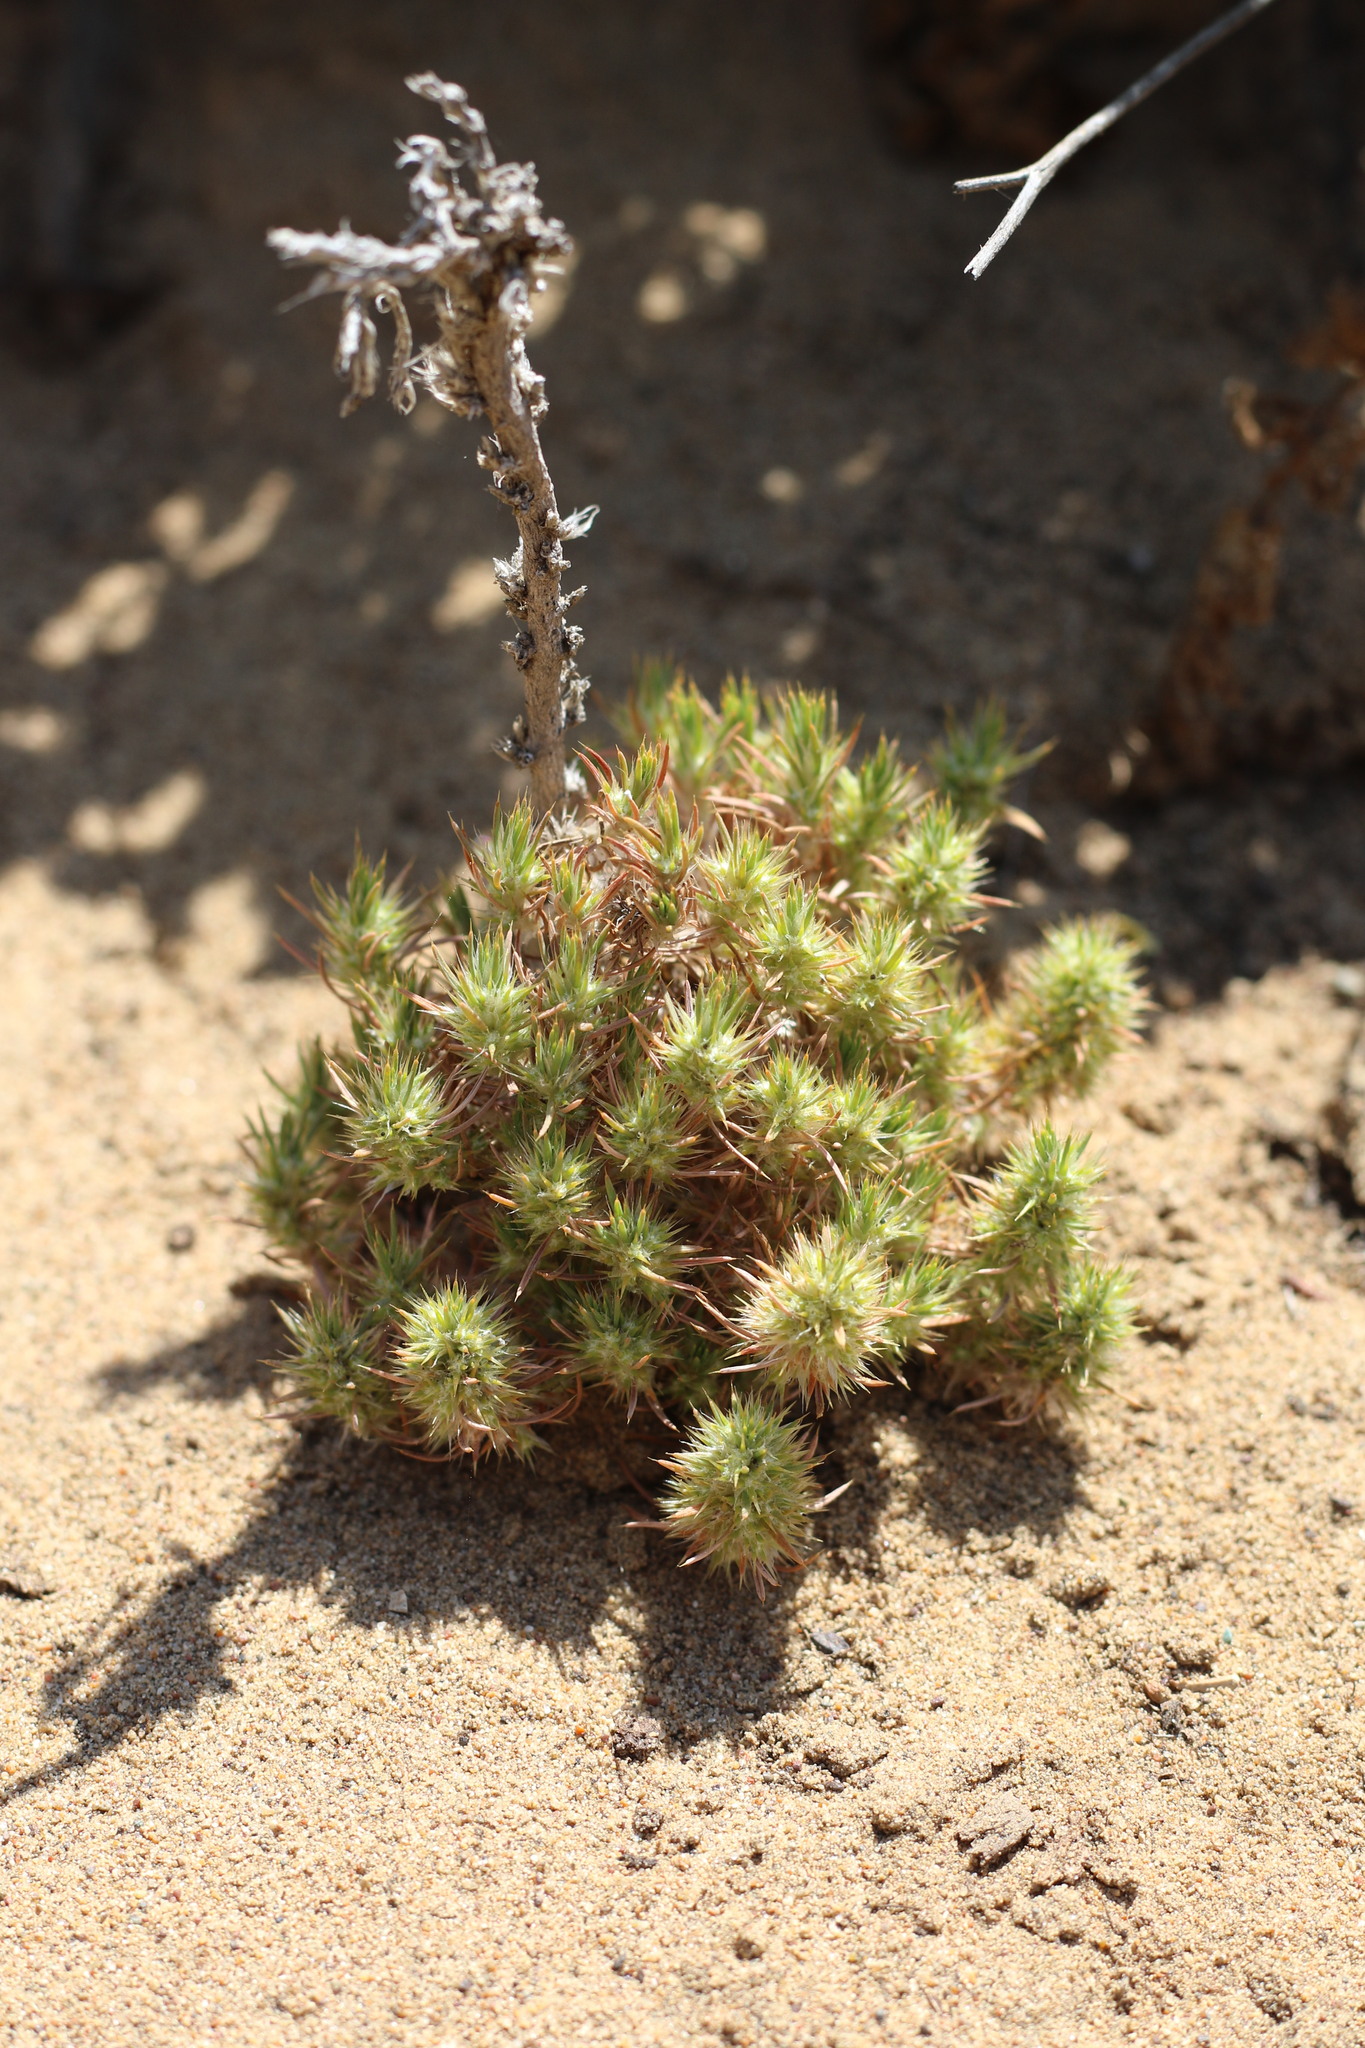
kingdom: Plantae
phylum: Tracheophyta
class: Magnoliopsida
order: Caryophyllales
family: Caryophyllaceae
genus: Cardionema
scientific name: Cardionema ramosissima
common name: Sandcarpet
